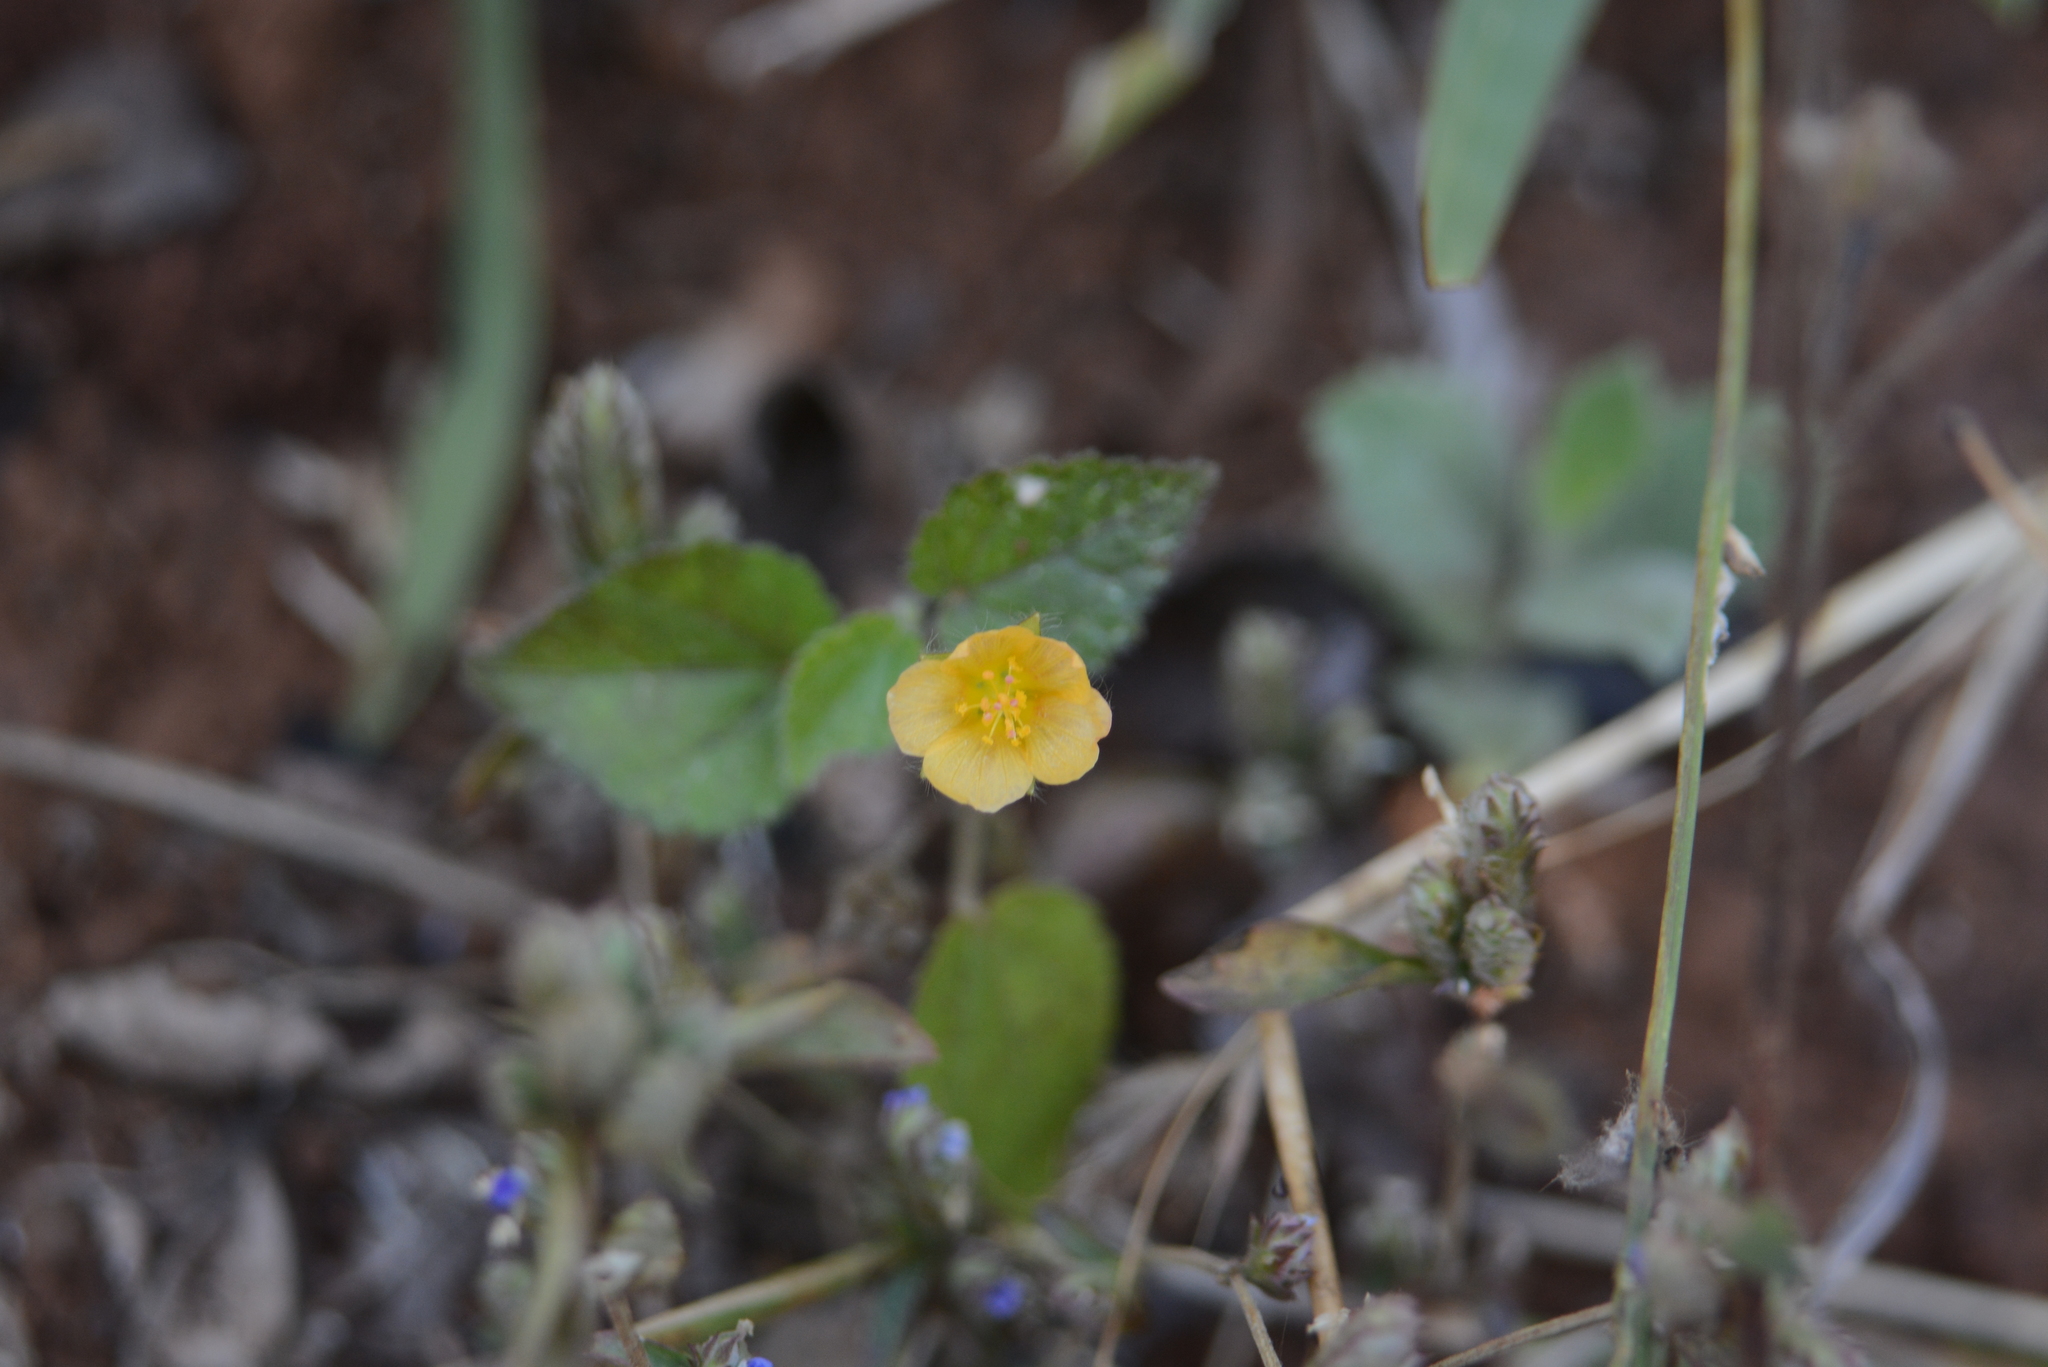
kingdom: Plantae
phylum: Tracheophyta
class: Magnoliopsida
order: Malvales
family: Malvaceae
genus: Sida
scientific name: Sida cordata
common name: Long-stalk sida
